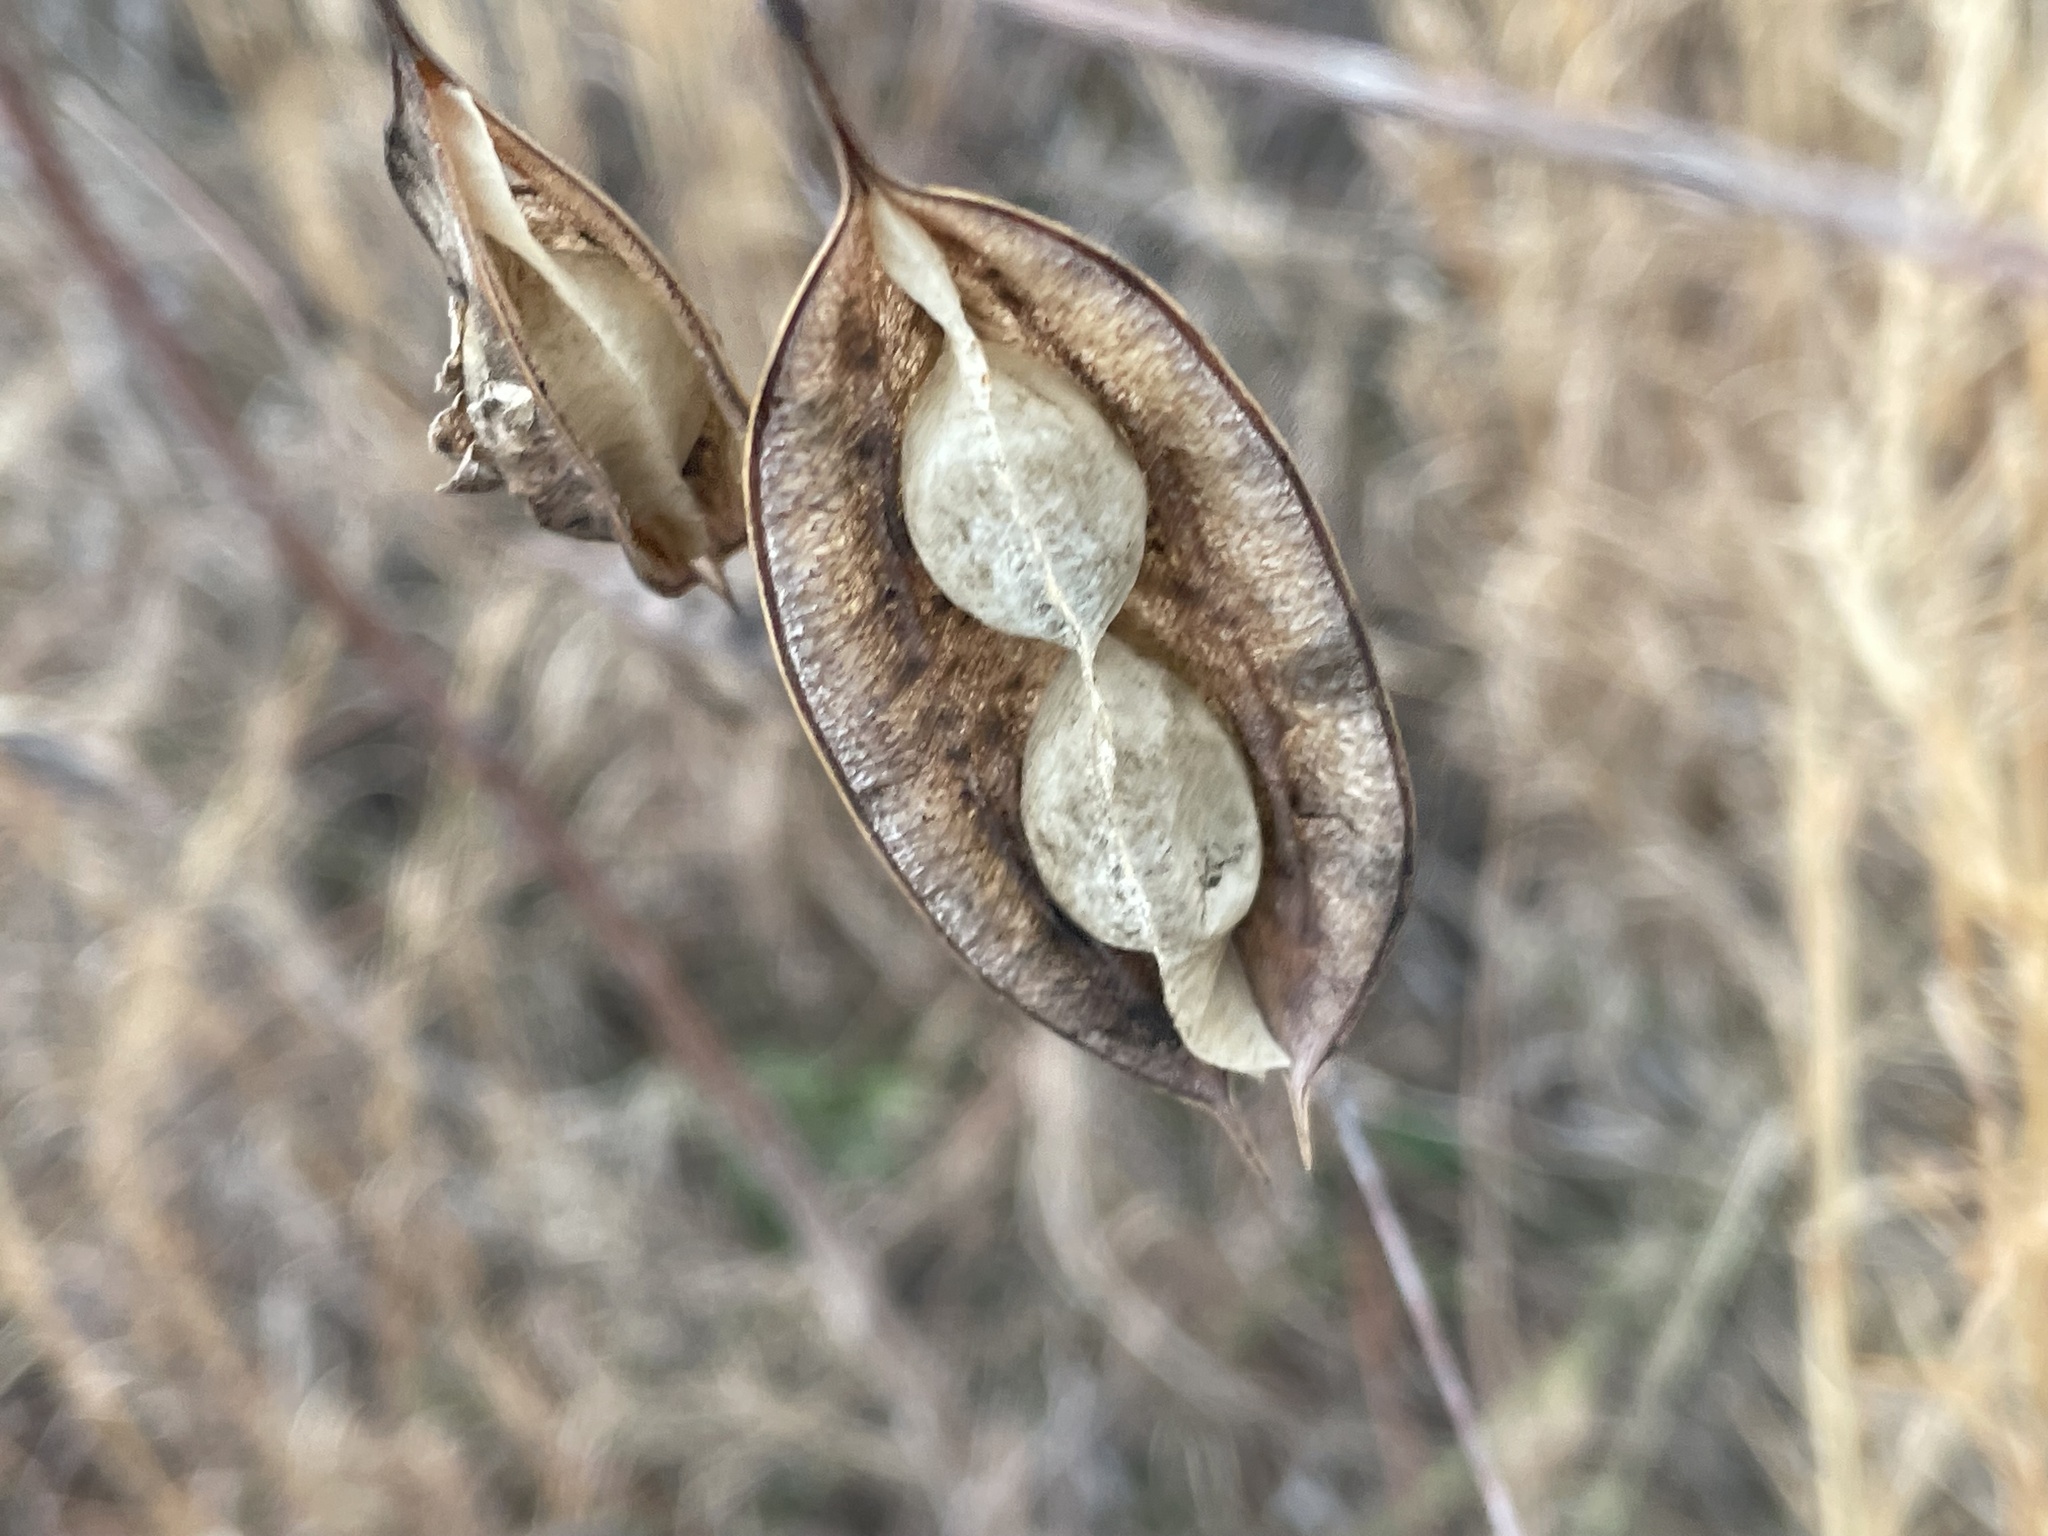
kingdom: Plantae
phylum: Tracheophyta
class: Magnoliopsida
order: Fabales
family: Fabaceae
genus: Sesbania
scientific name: Sesbania vesicaria
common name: Bagpod
